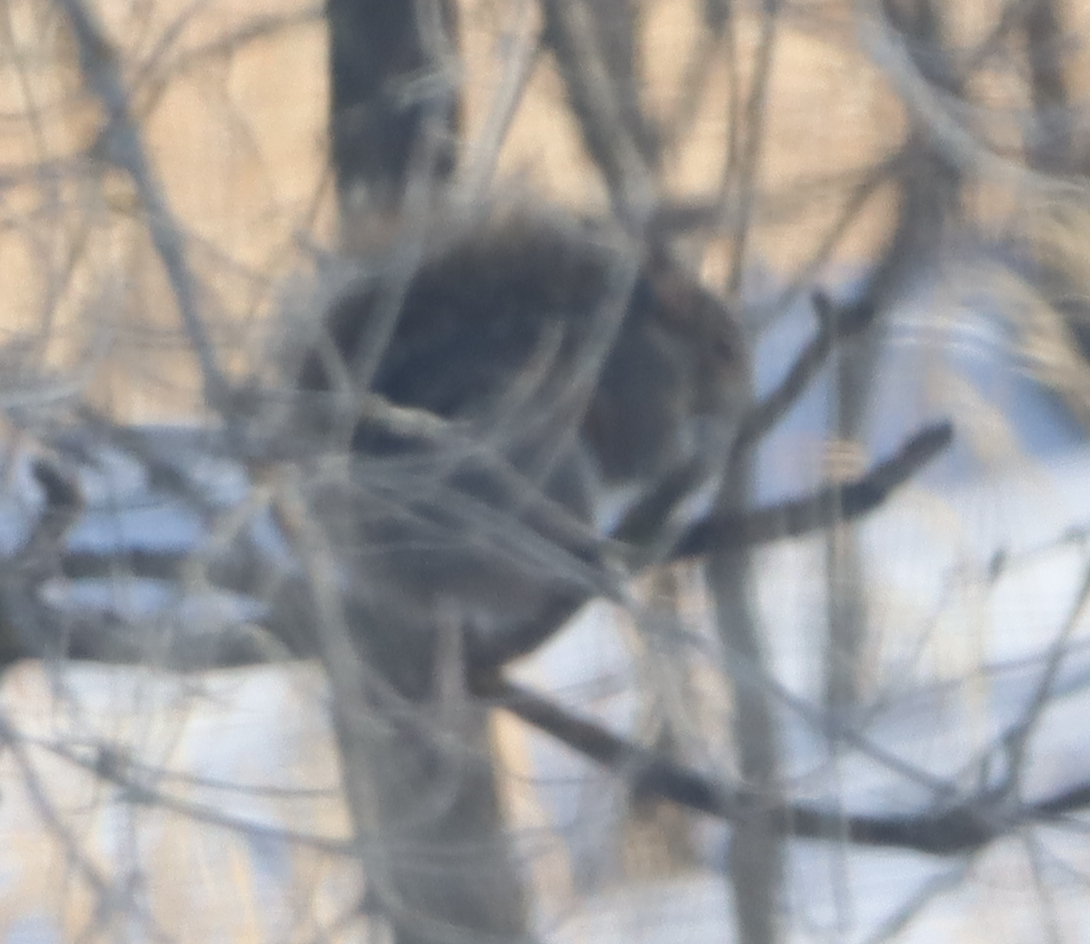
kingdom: Animalia
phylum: Chordata
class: Mammalia
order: Rodentia
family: Sciuridae
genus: Sciurus
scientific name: Sciurus carolinensis
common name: Eastern gray squirrel
